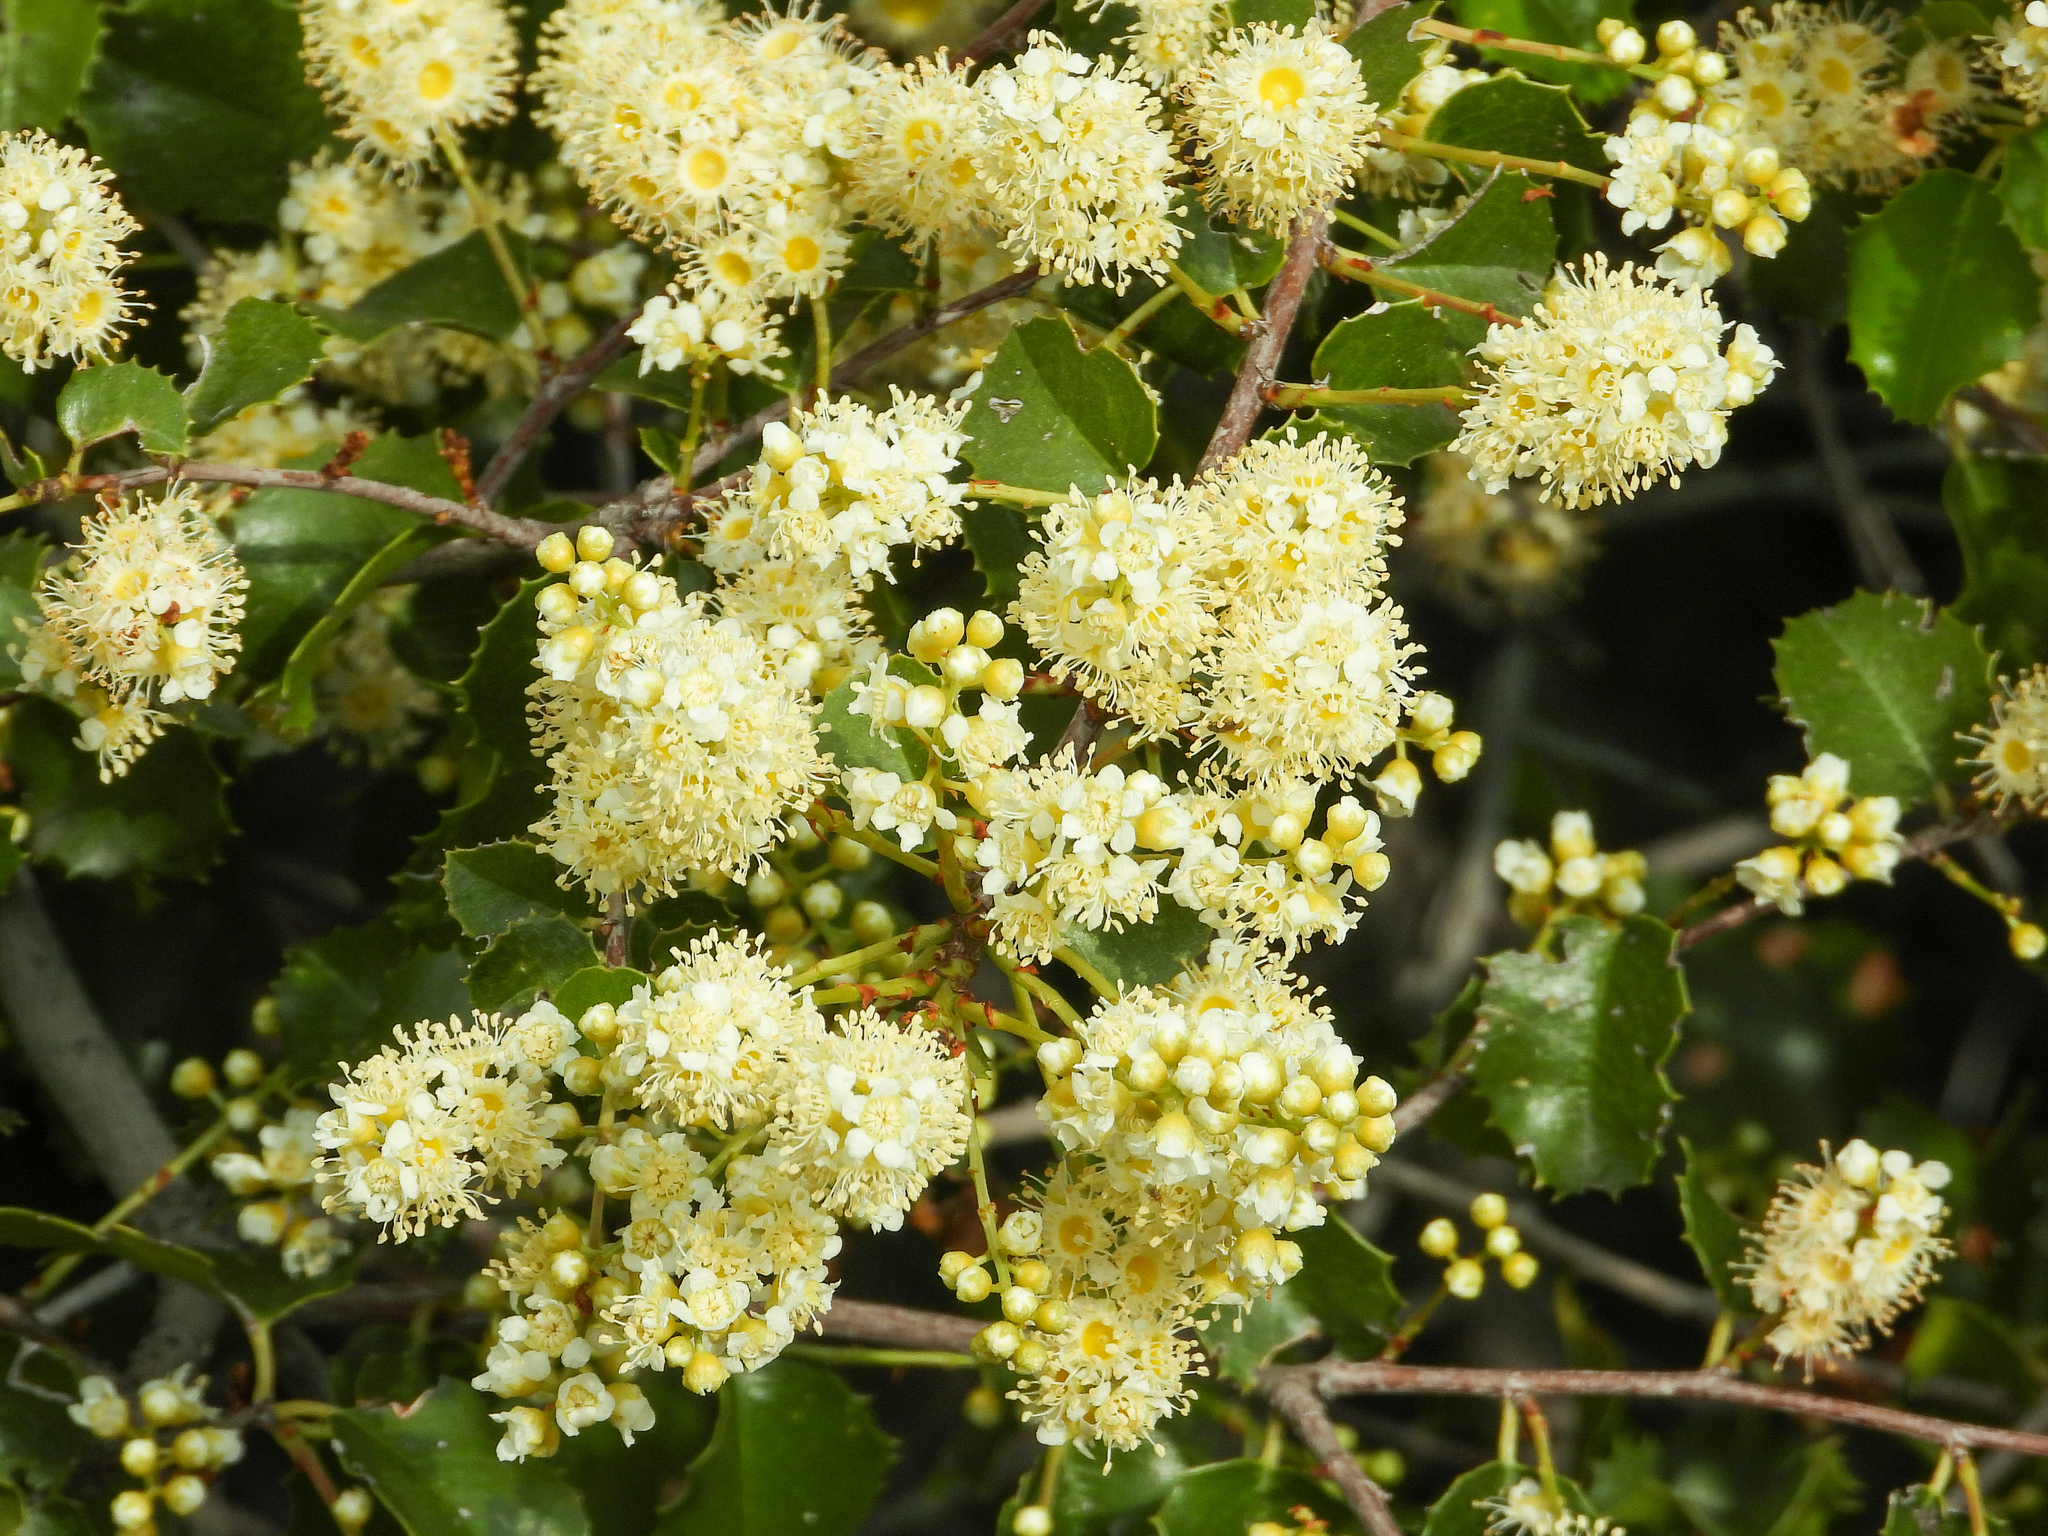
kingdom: Plantae
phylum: Tracheophyta
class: Magnoliopsida
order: Rosales
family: Rosaceae
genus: Prunus
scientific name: Prunus ilicifolia
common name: Hollyleaf cherry
